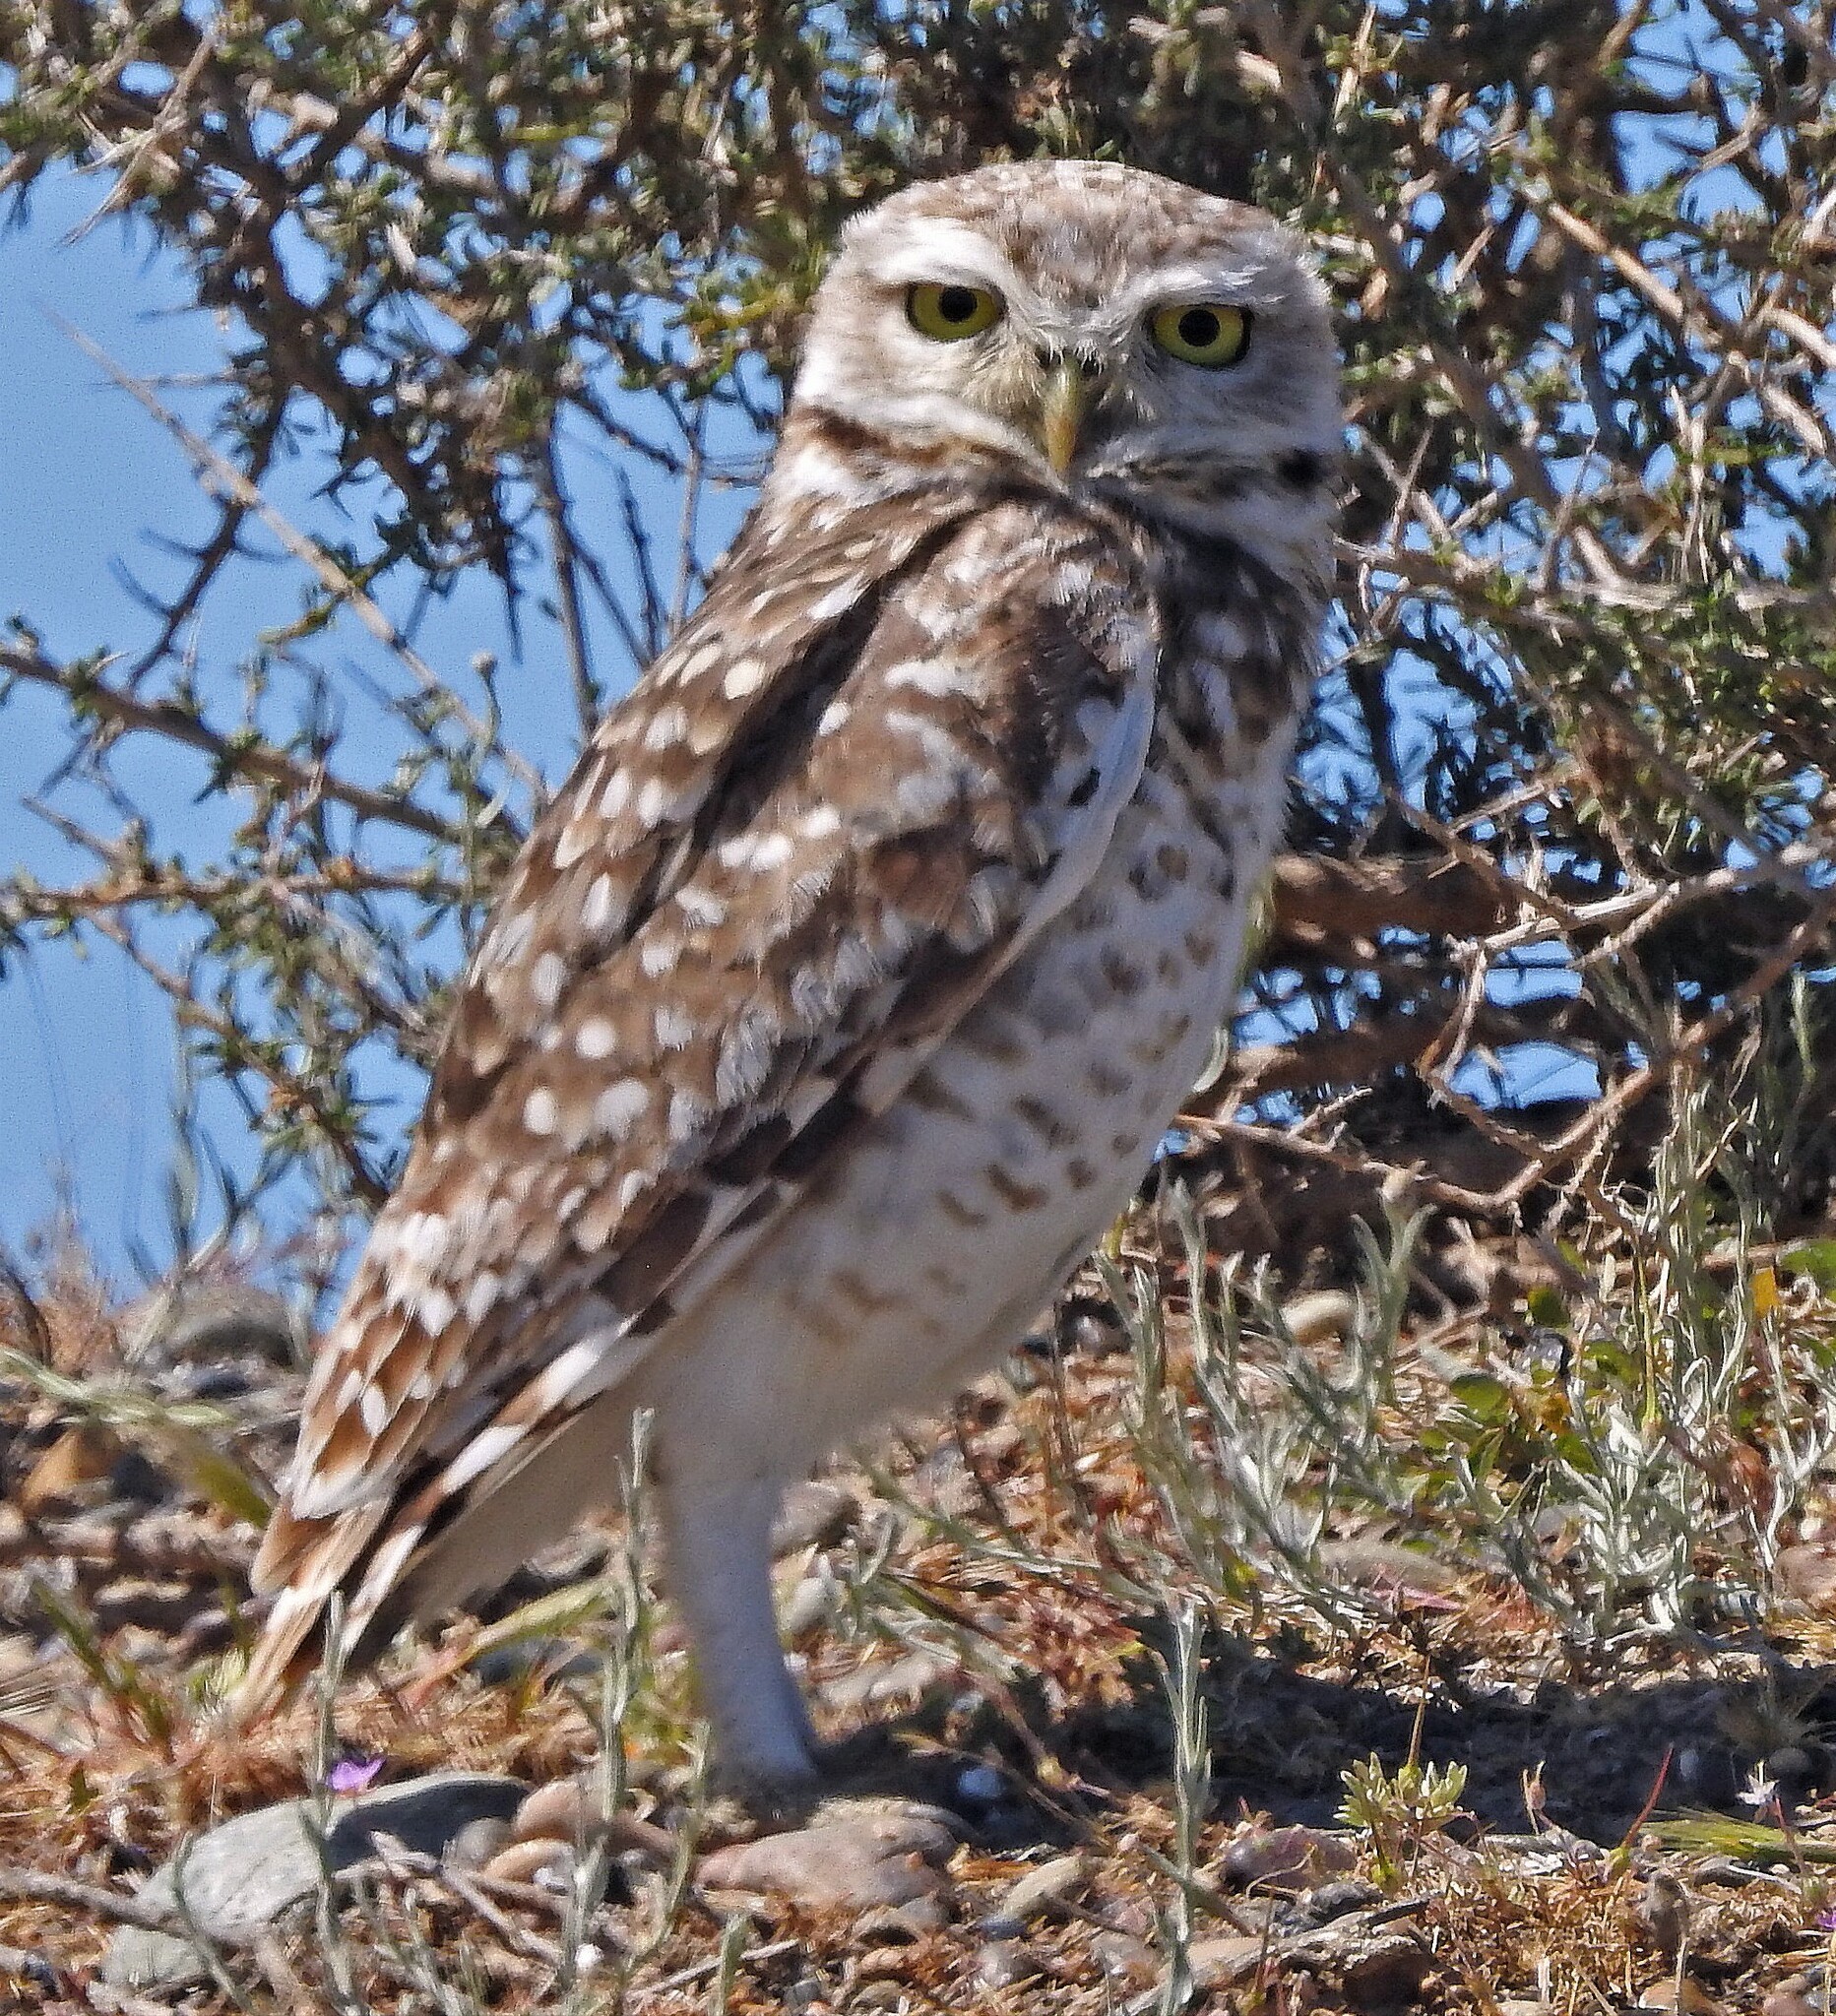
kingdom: Animalia
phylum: Chordata
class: Aves
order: Strigiformes
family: Strigidae
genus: Athene
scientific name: Athene cunicularia
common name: Burrowing owl
